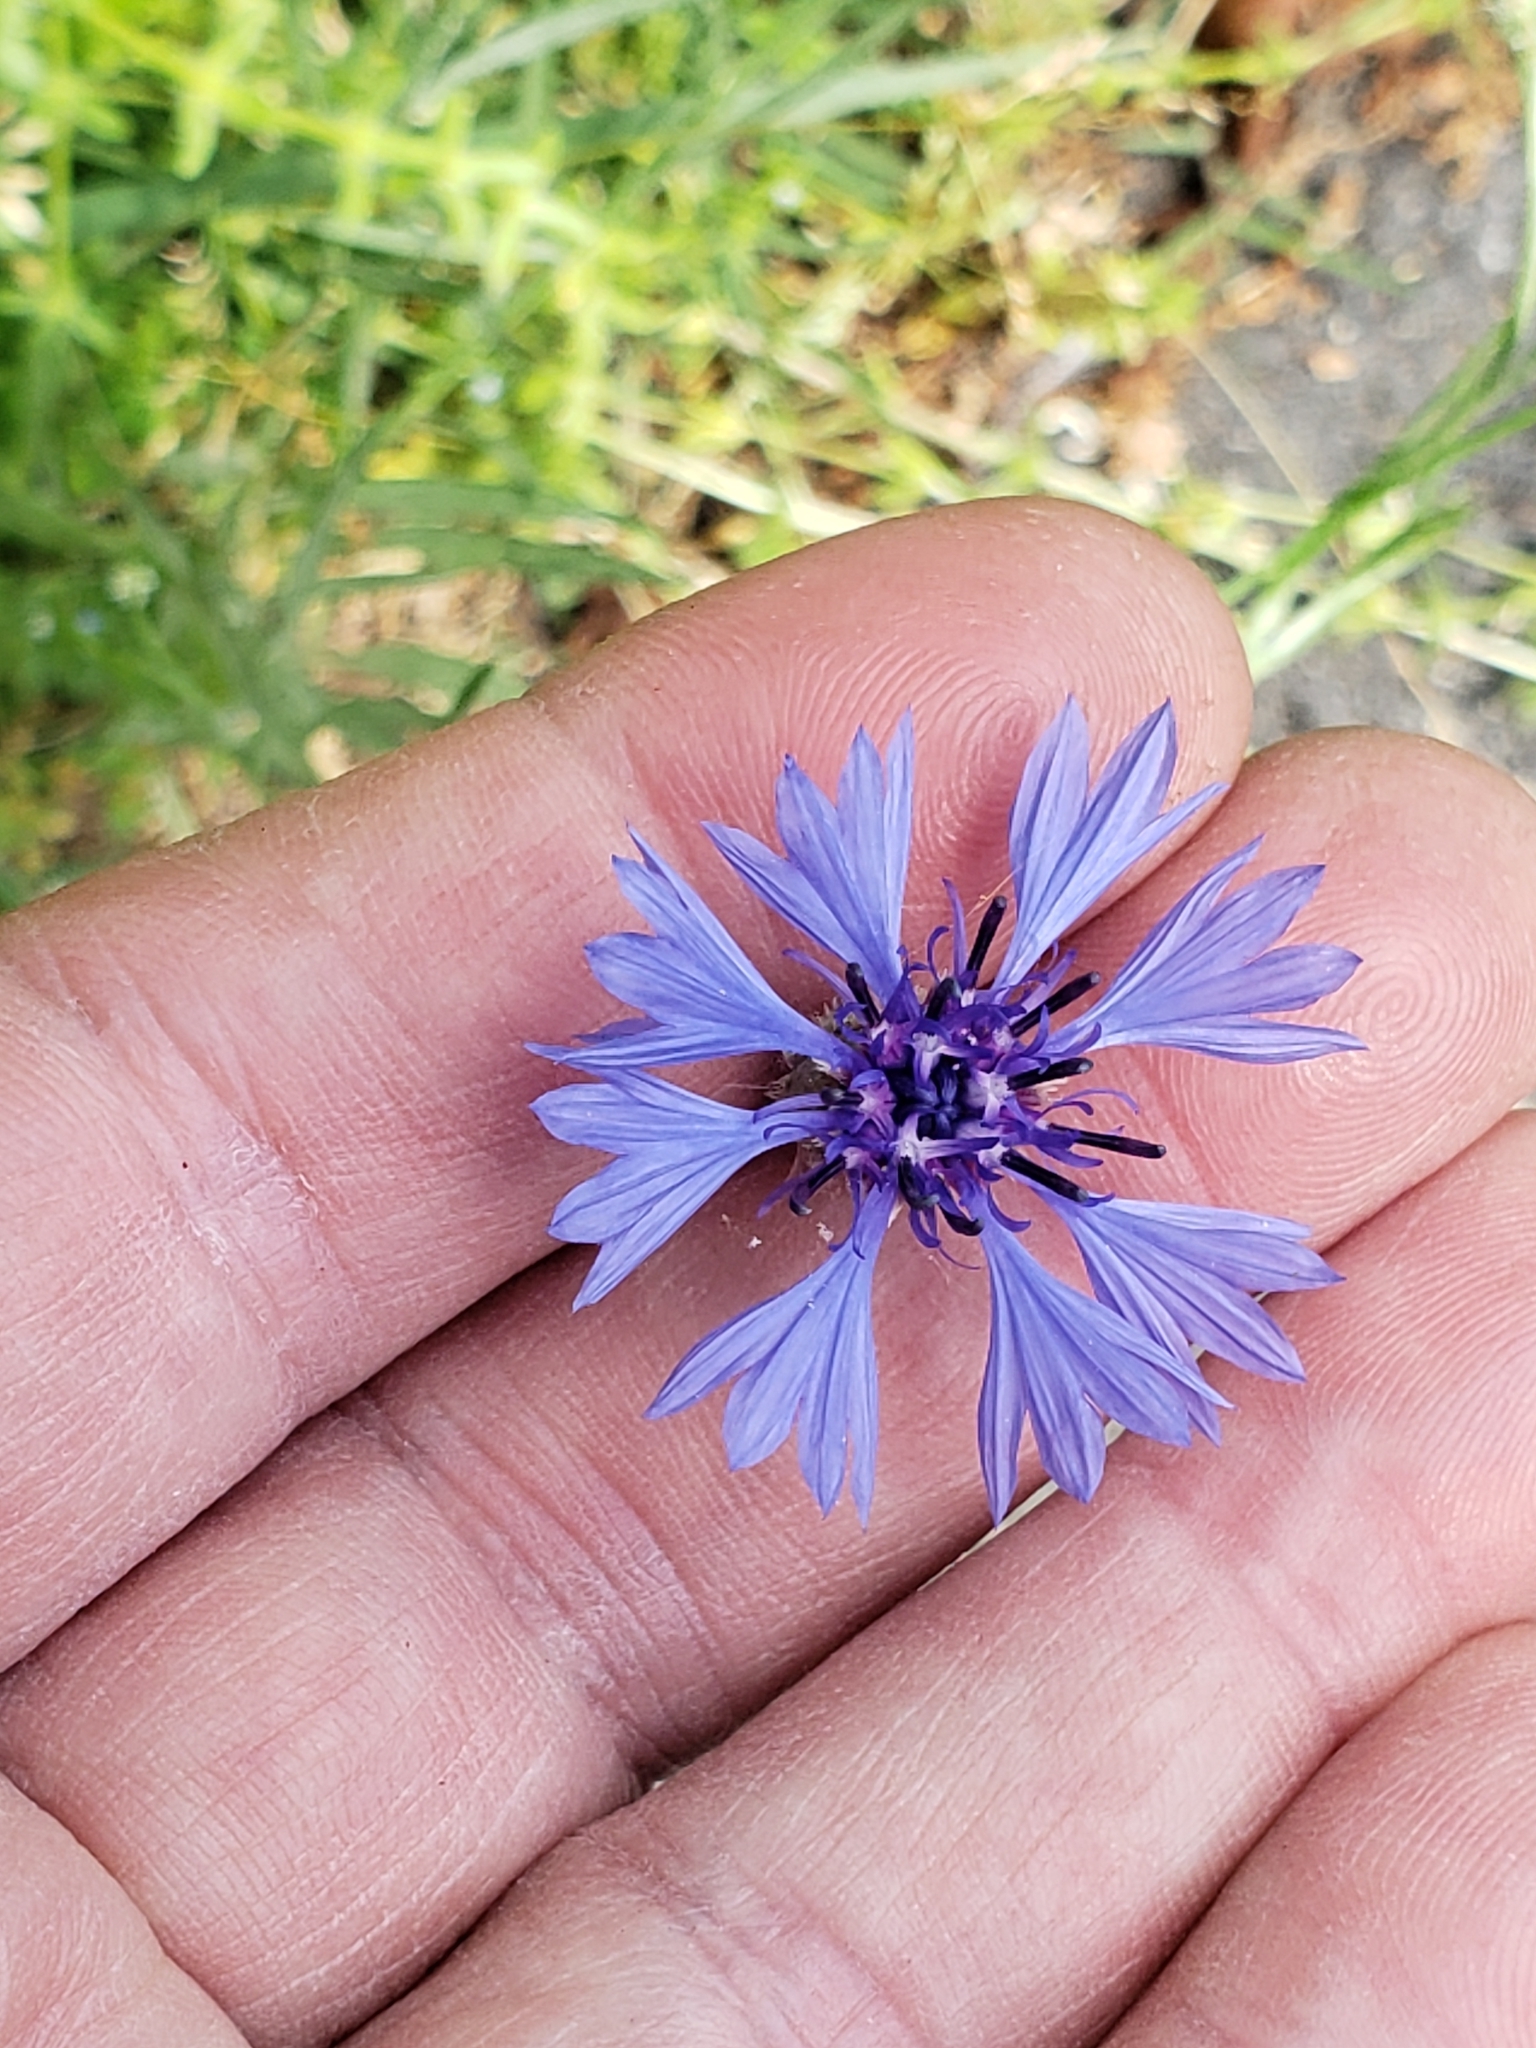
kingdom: Plantae
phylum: Tracheophyta
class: Magnoliopsida
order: Asterales
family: Asteraceae
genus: Centaurea
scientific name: Centaurea cyanus
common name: Cornflower
